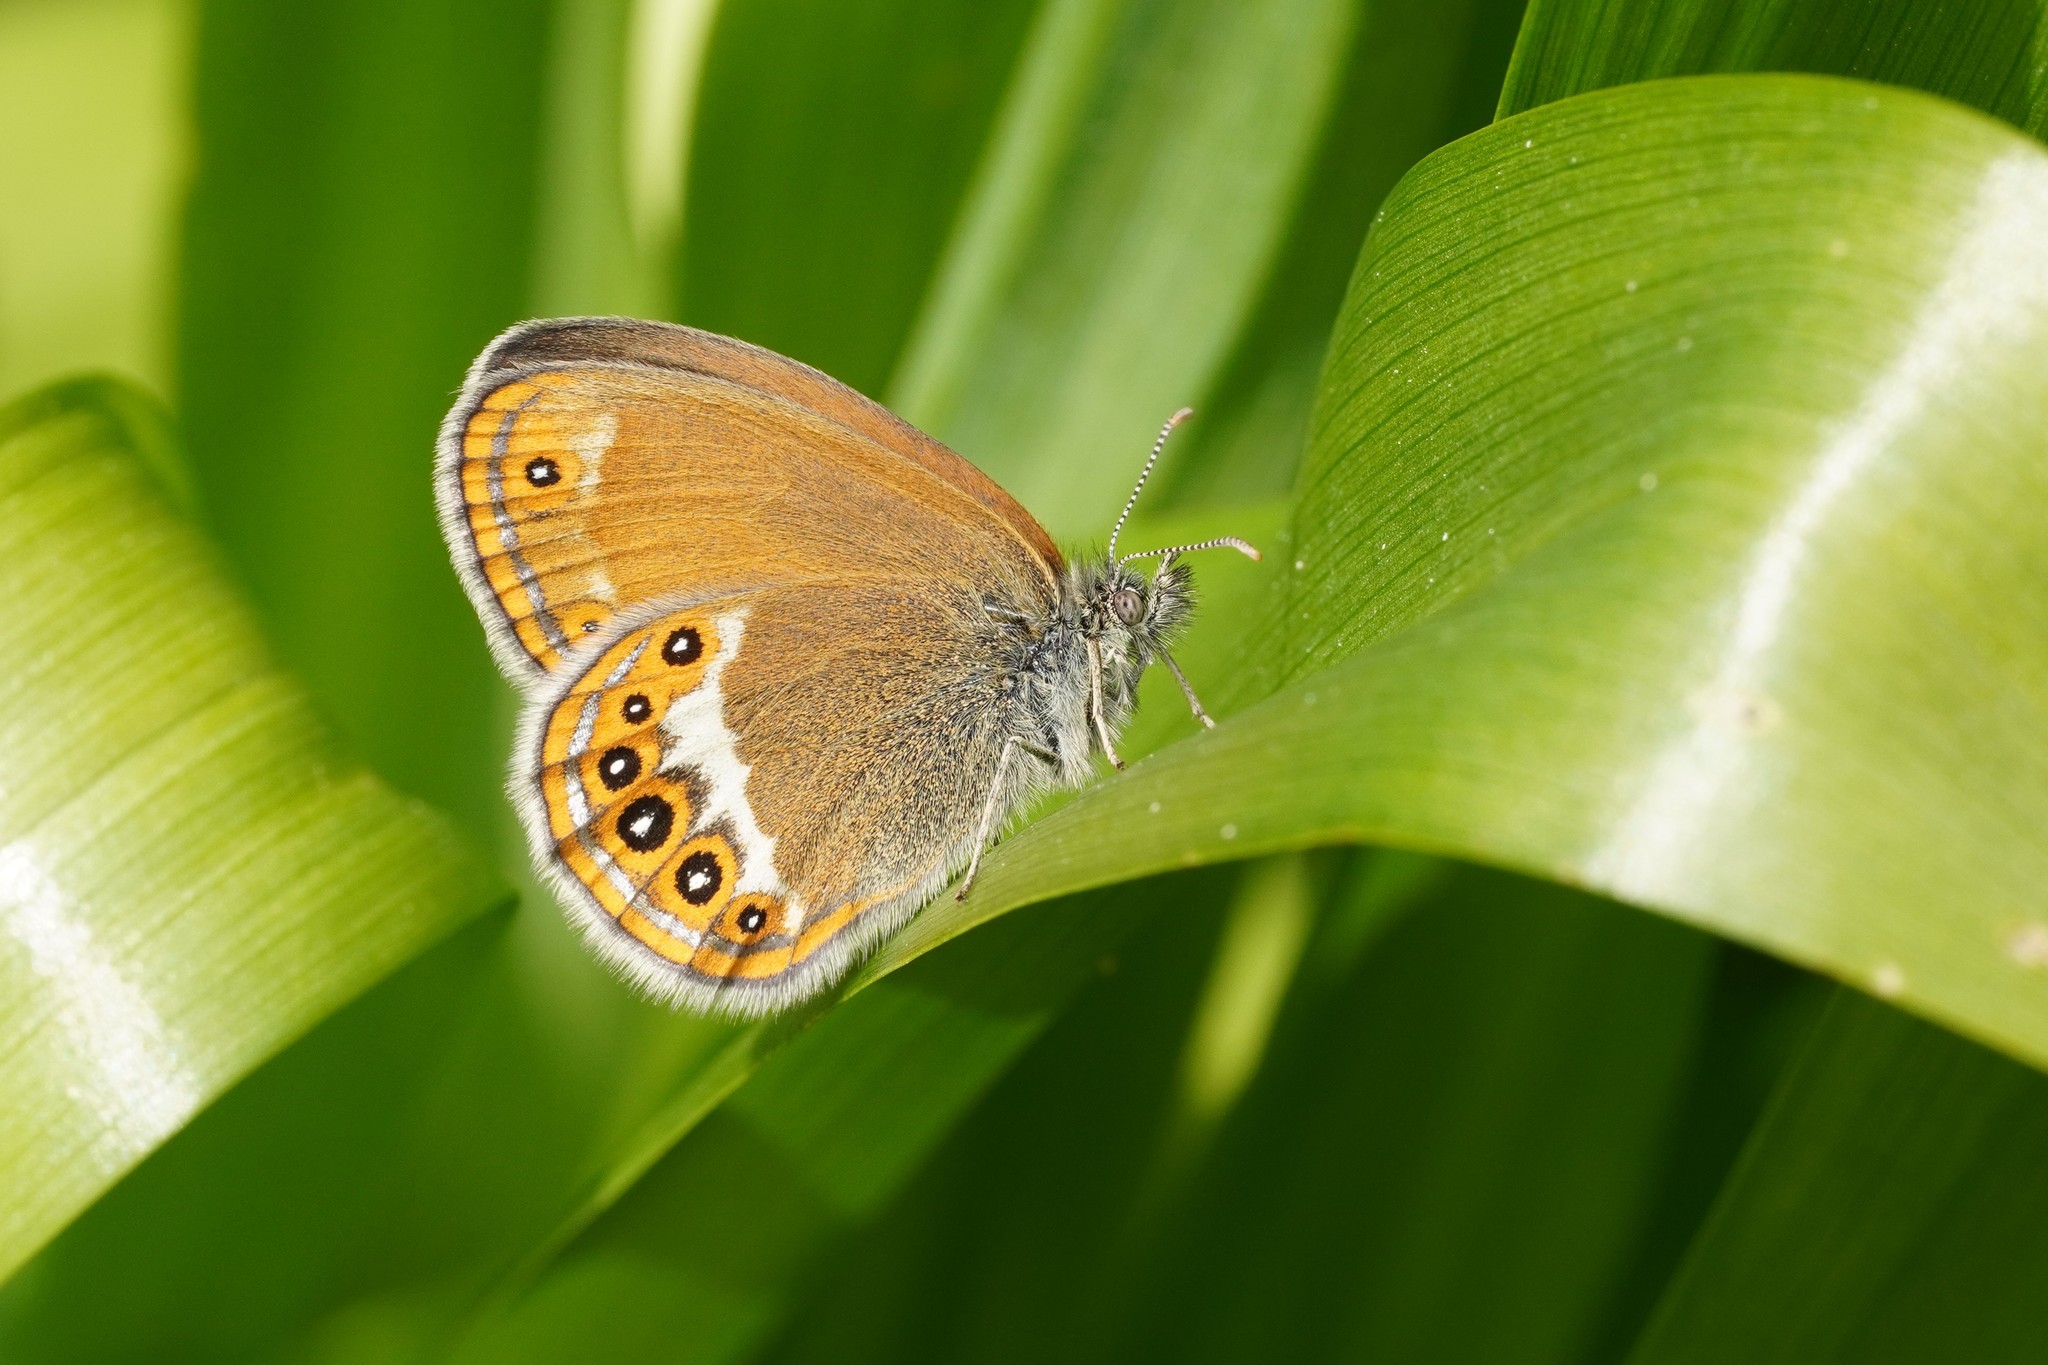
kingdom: Animalia
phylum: Arthropoda
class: Insecta
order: Lepidoptera
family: Nymphalidae
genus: Coenonympha
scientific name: Coenonympha hero
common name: Scarce heath
